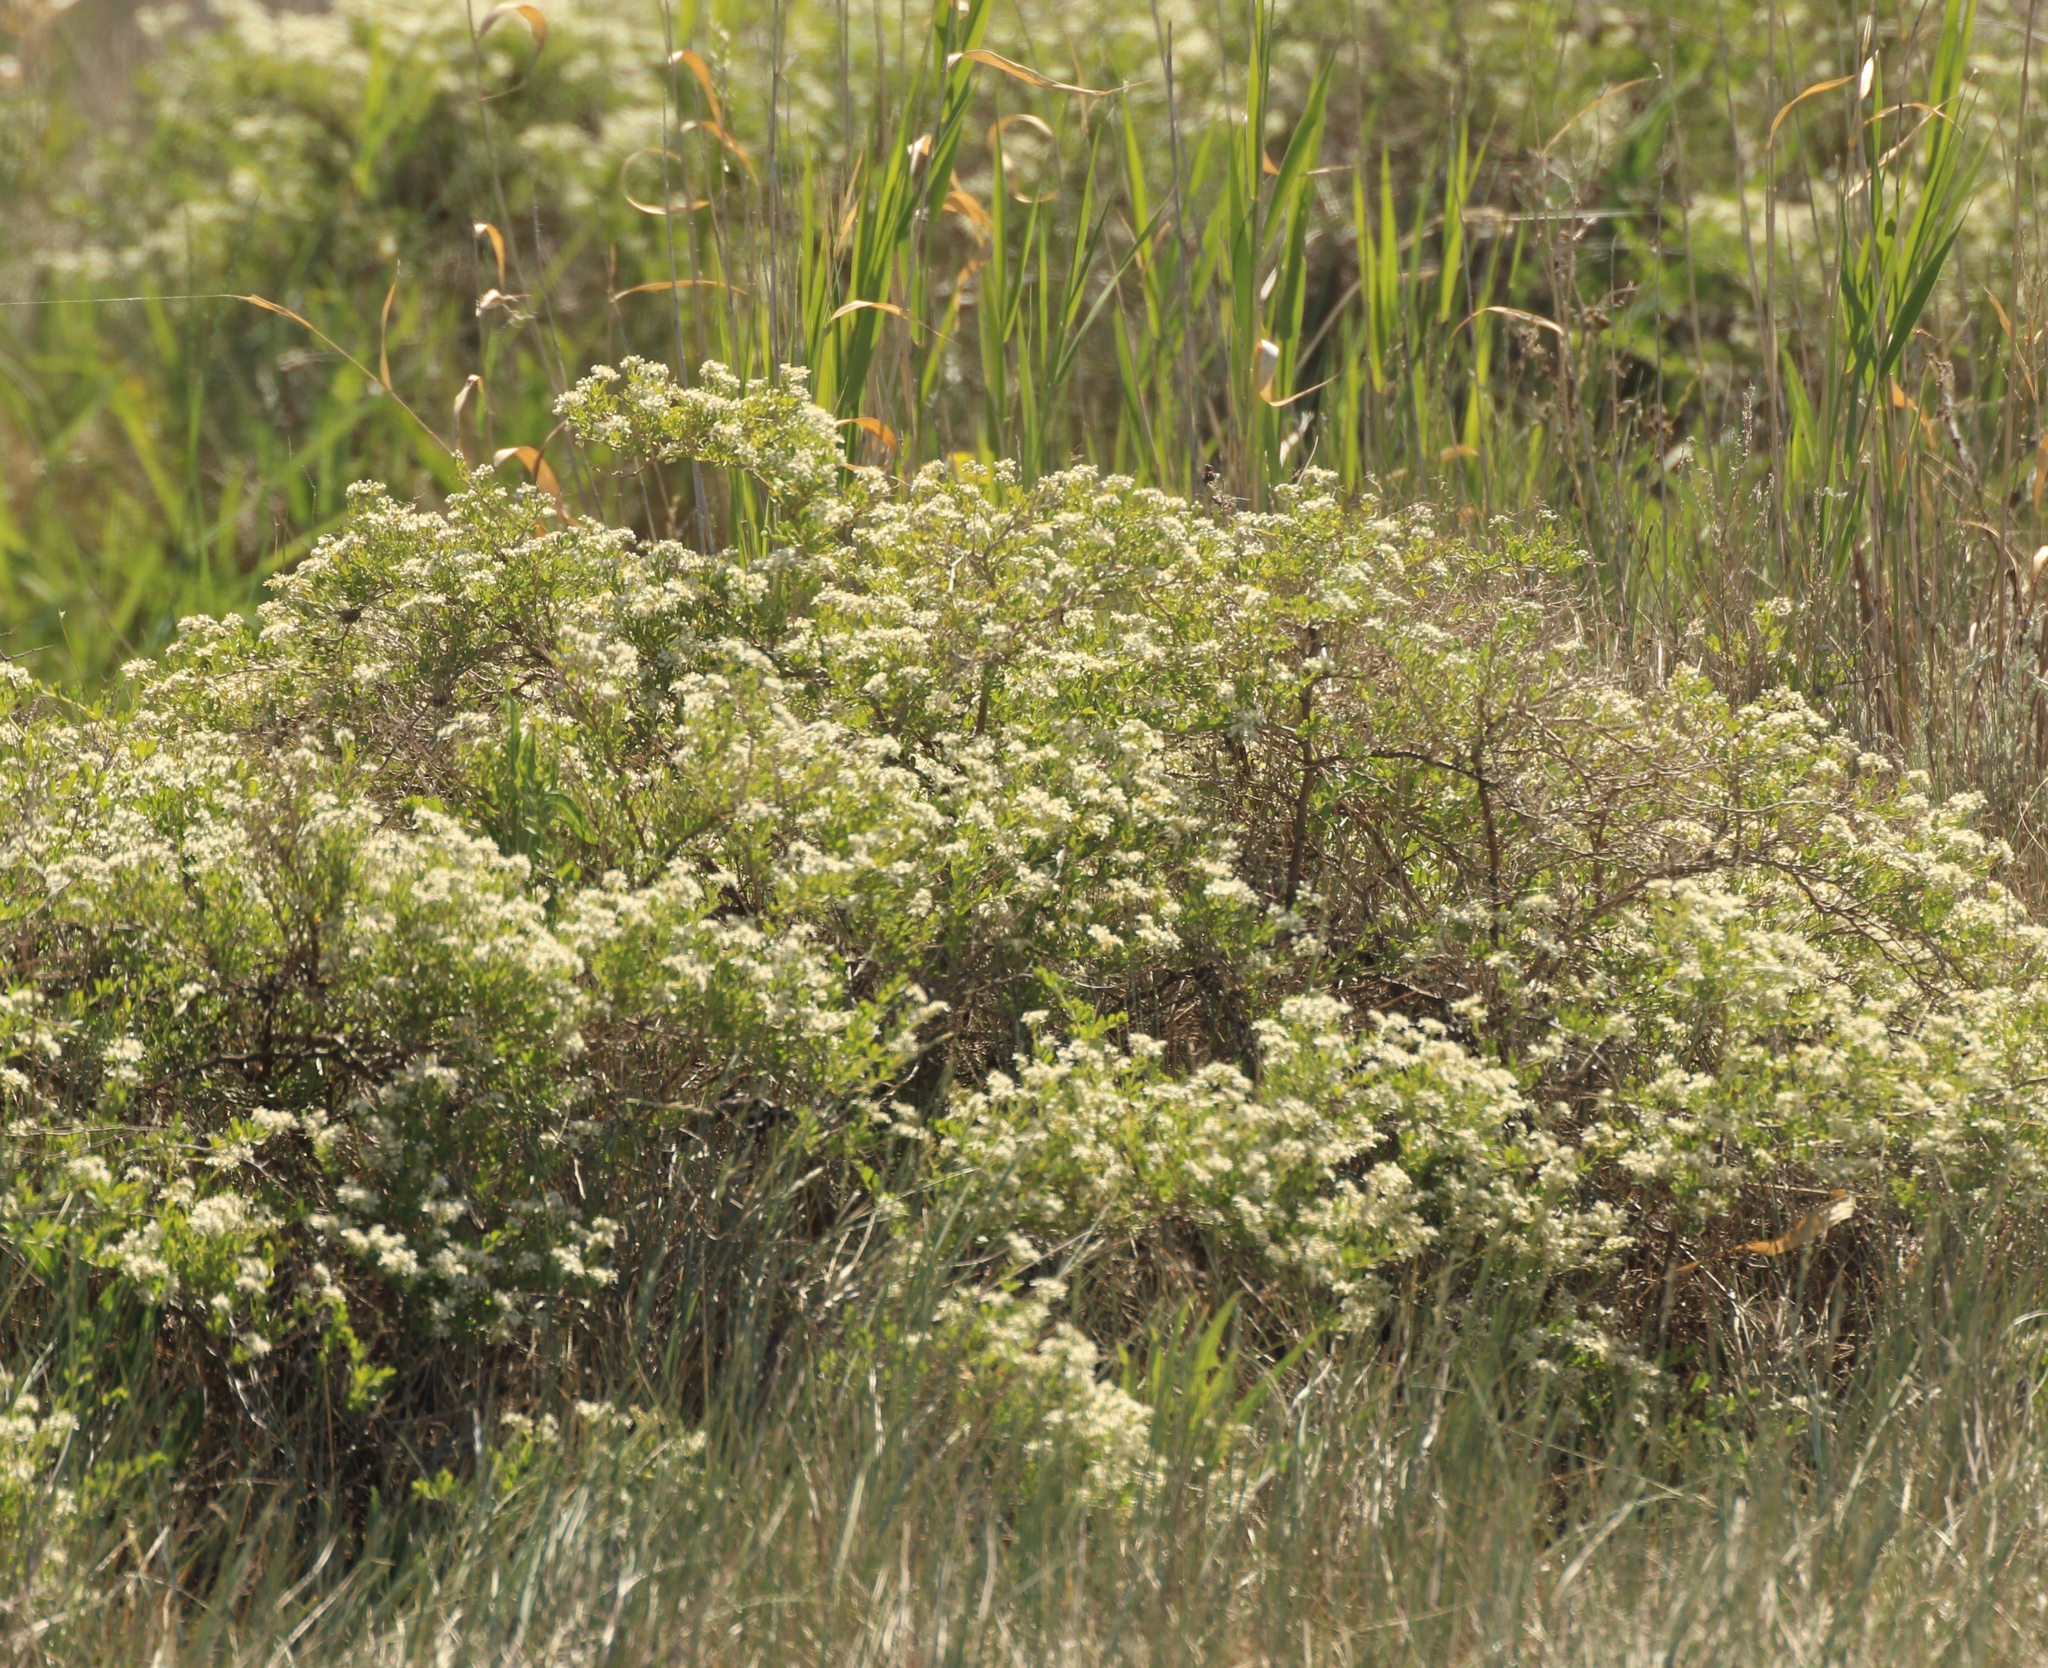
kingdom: Plantae
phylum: Tracheophyta
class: Magnoliopsida
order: Sapindales
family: Nitrariaceae
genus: Nitraria
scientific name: Nitraria sibirica
